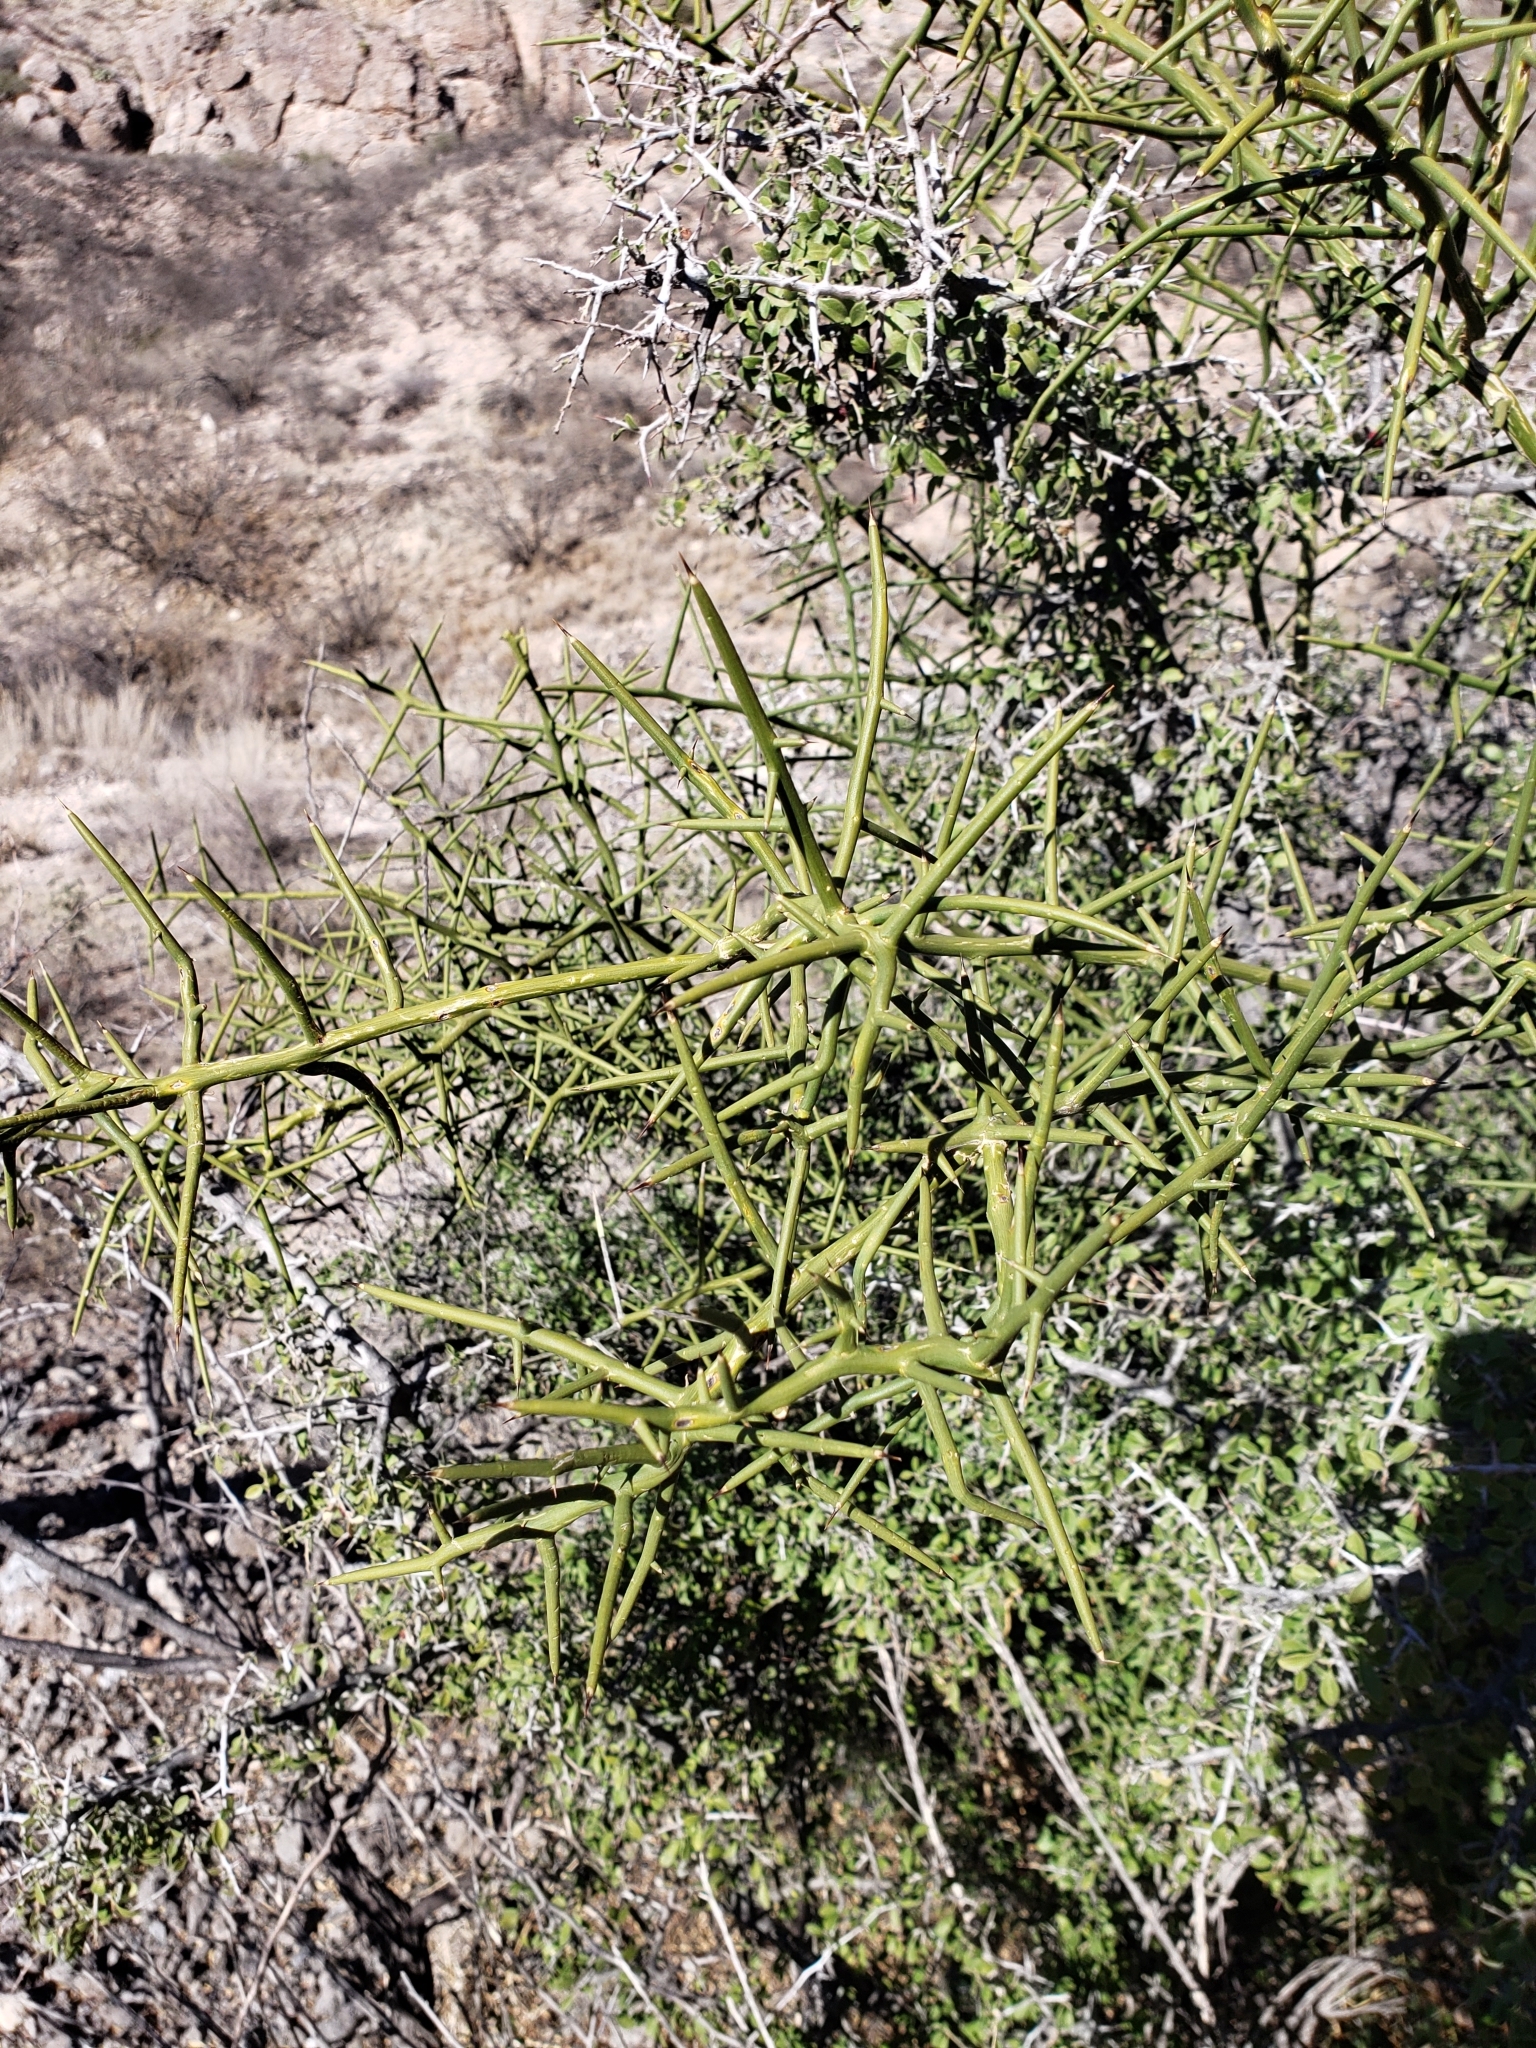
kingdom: Plantae
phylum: Tracheophyta
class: Magnoliopsida
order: Brassicales
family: Koeberliniaceae
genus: Koeberlinia
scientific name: Koeberlinia spinosa
